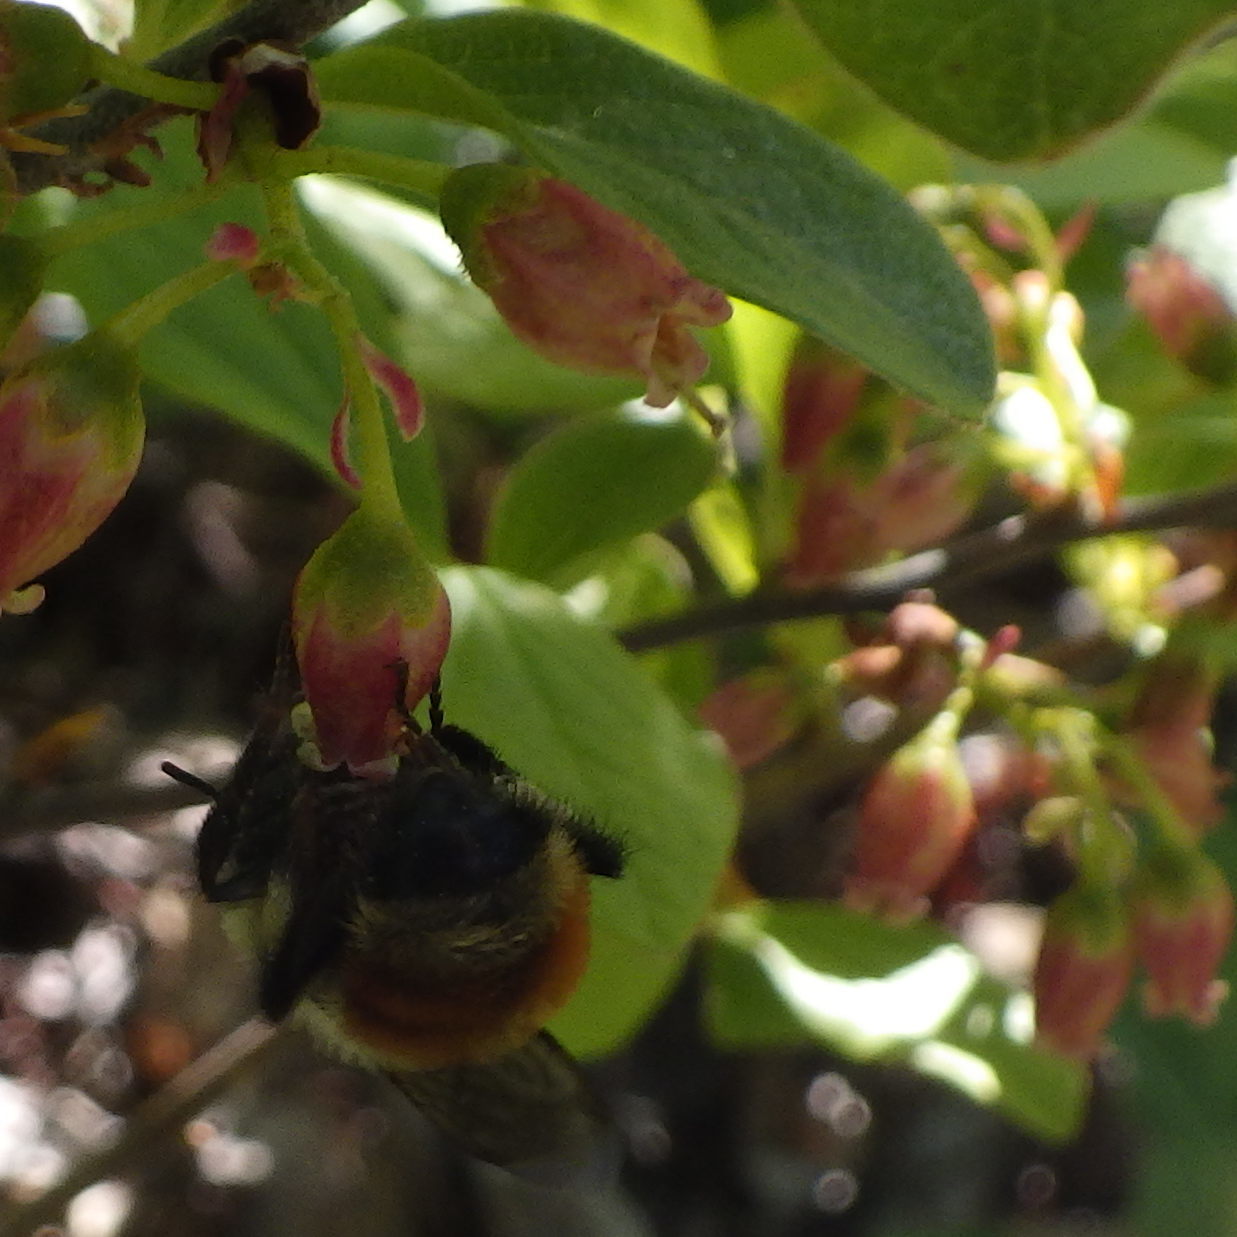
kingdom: Animalia
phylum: Arthropoda
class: Insecta
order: Hymenoptera
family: Apidae
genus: Bombus
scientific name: Bombus ternarius
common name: Tri-colored bumble bee
